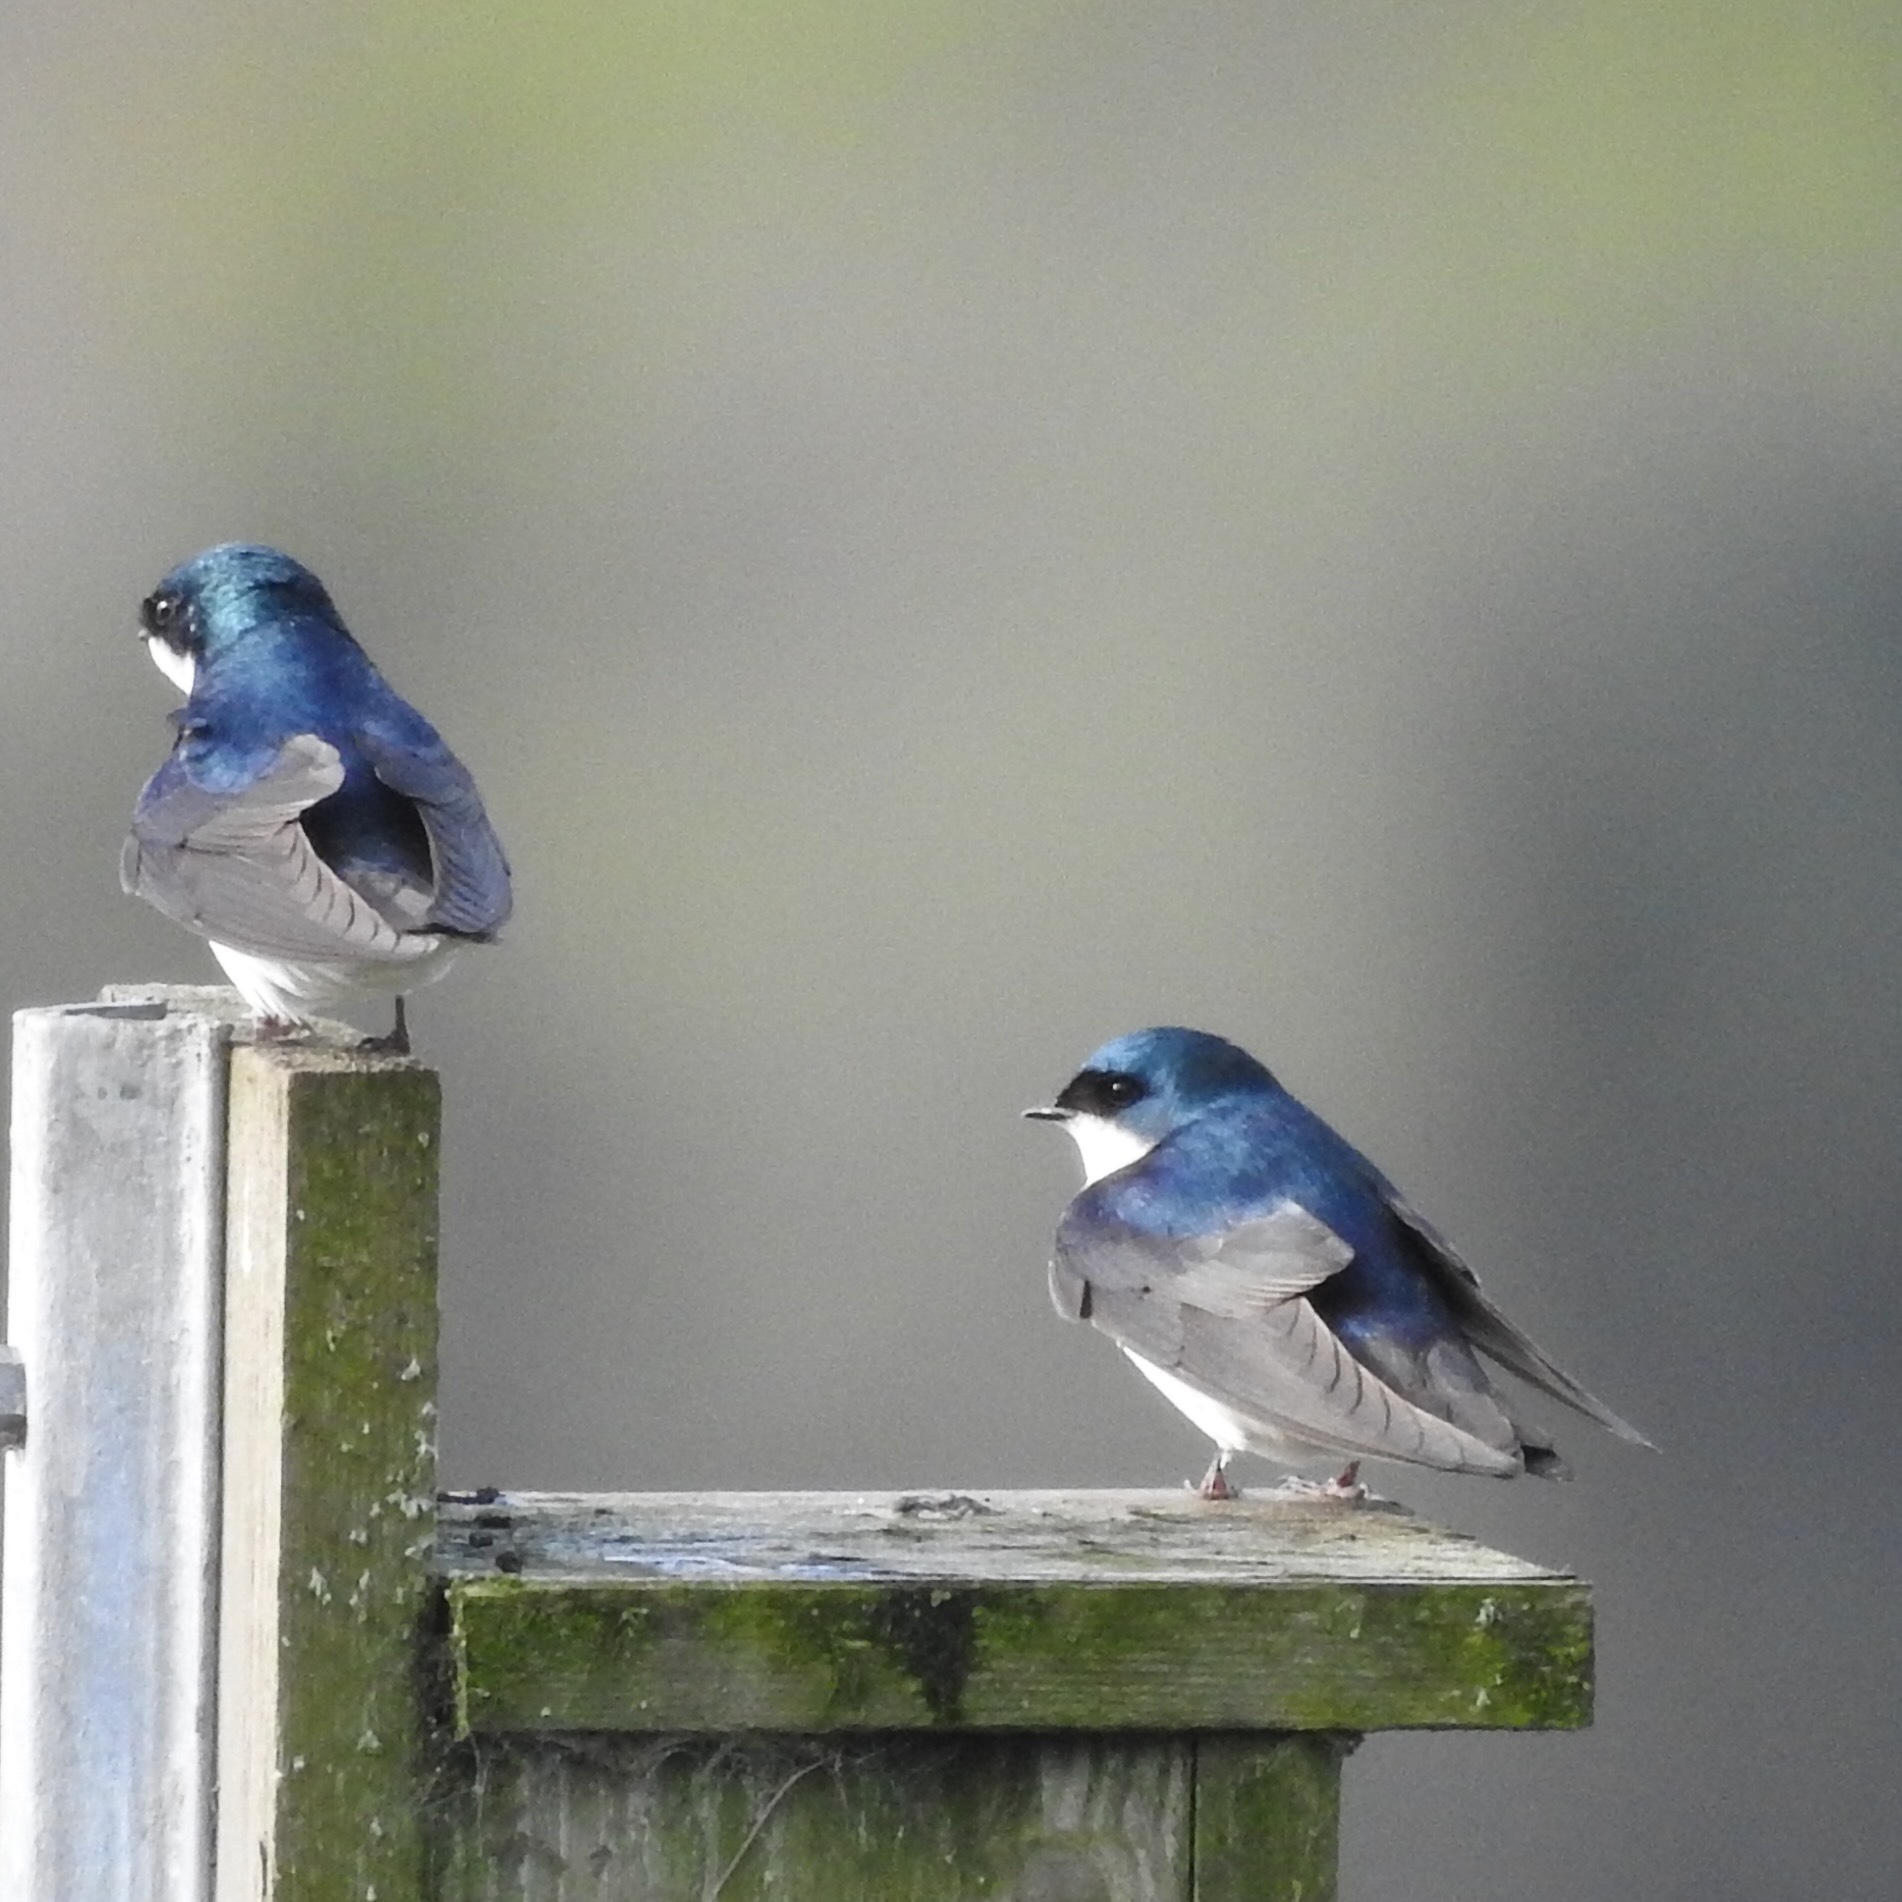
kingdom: Animalia
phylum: Chordata
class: Aves
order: Passeriformes
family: Hirundinidae
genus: Tachycineta
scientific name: Tachycineta bicolor
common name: Tree swallow
